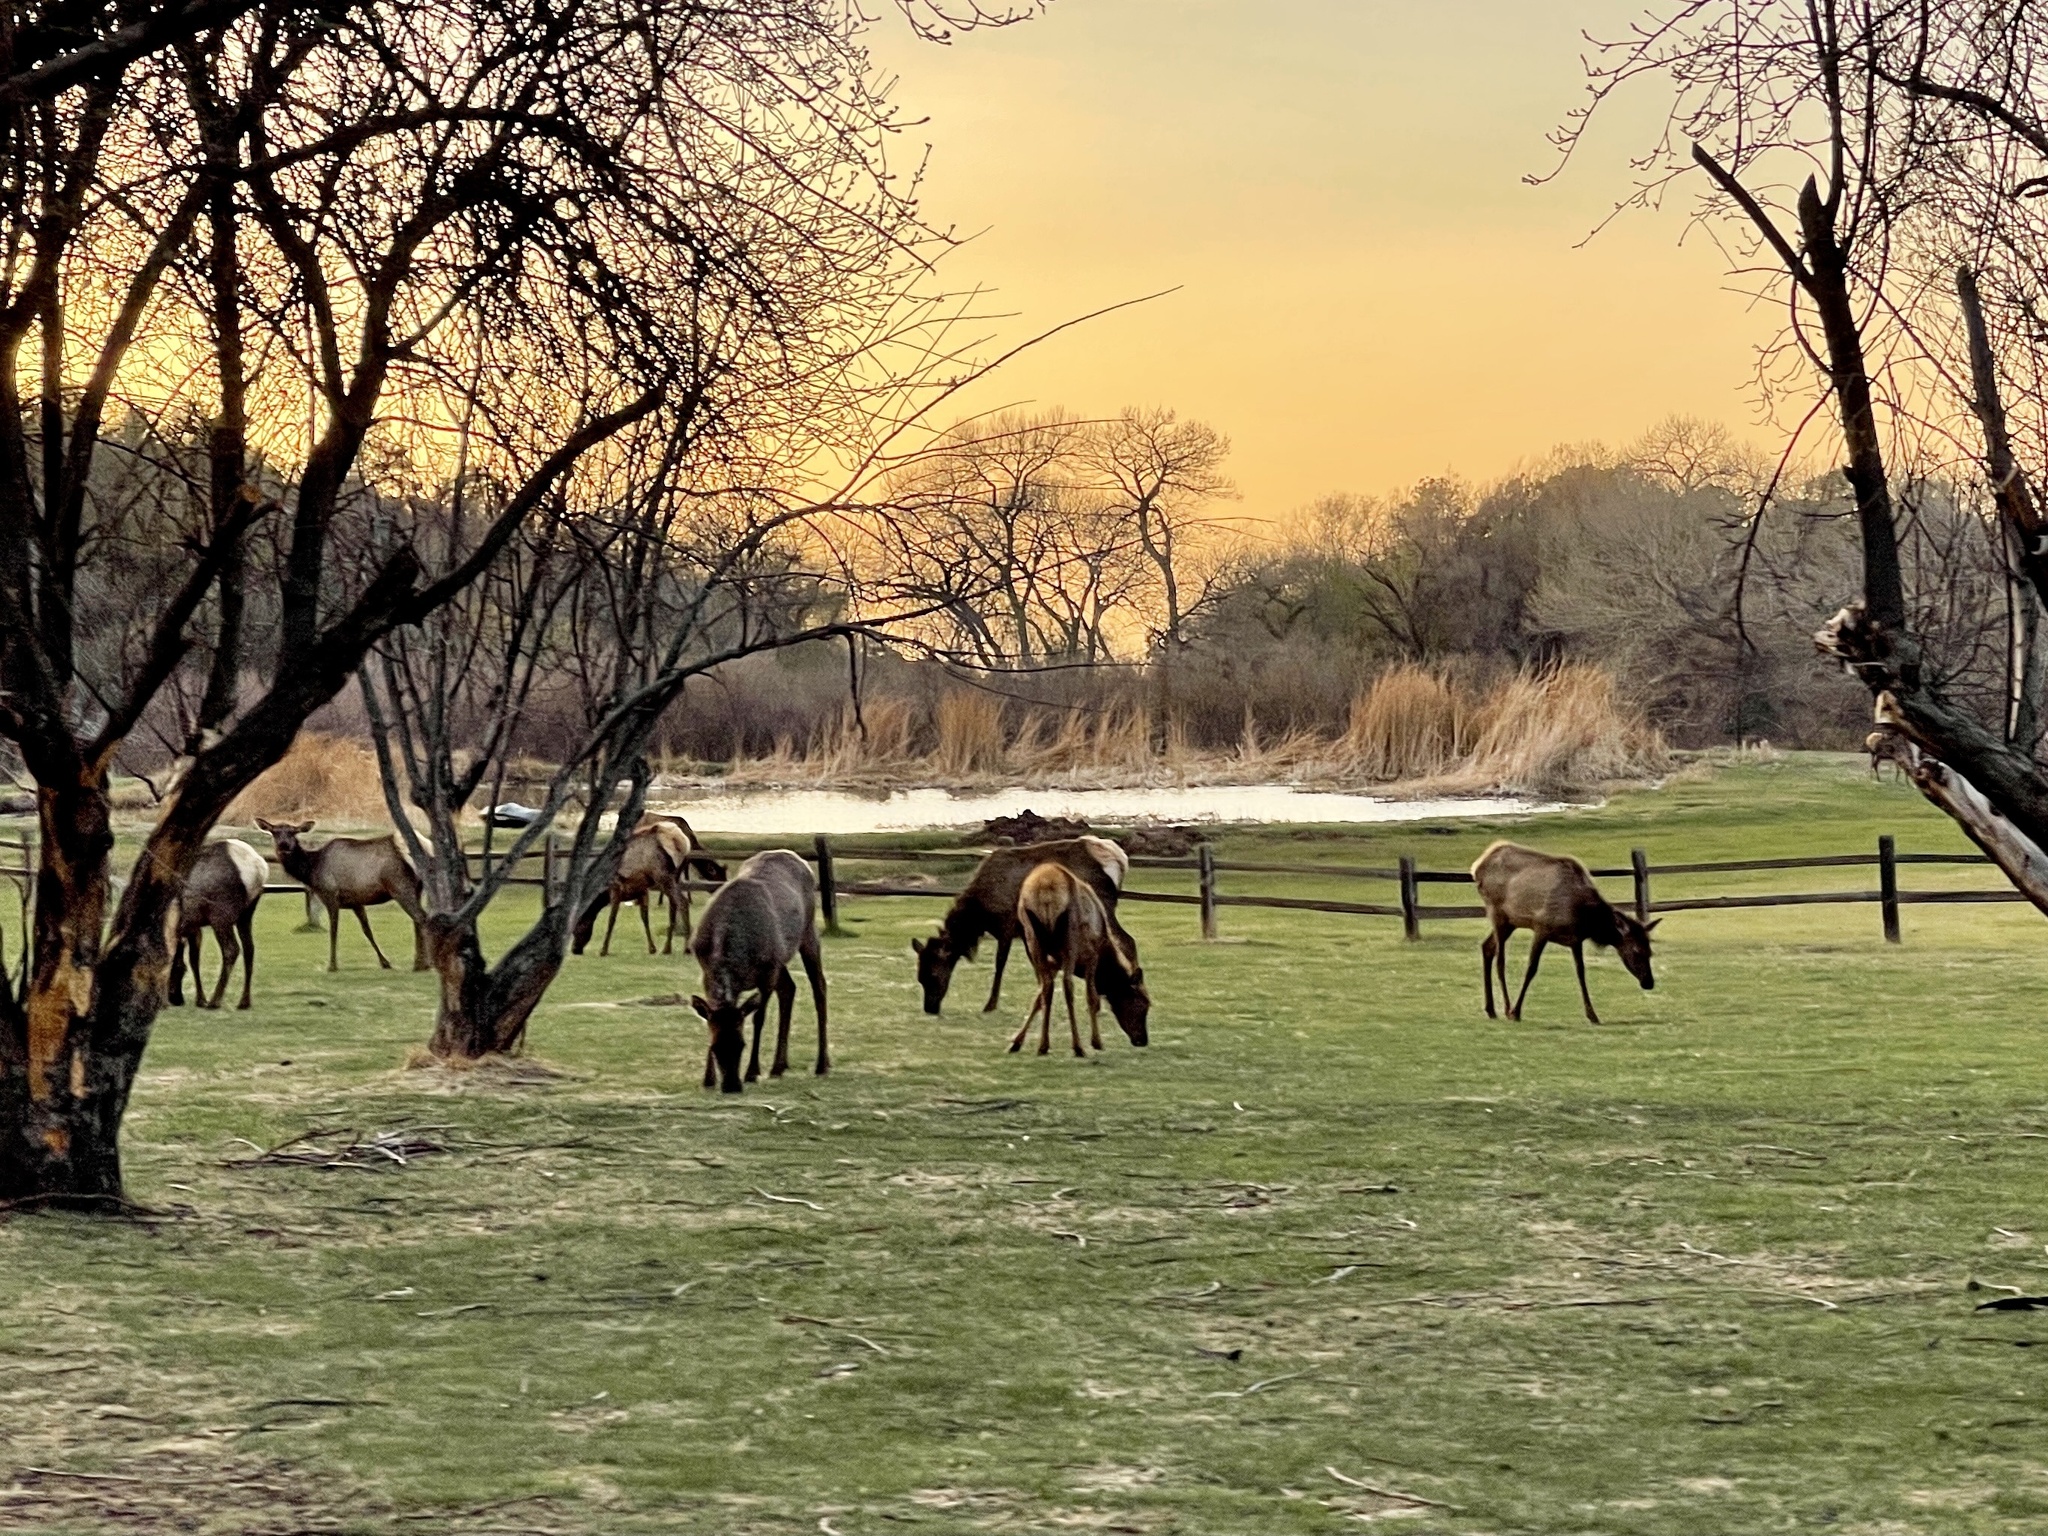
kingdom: Animalia
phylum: Chordata
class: Mammalia
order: Artiodactyla
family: Cervidae
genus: Cervus
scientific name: Cervus elaphus
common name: Red deer
